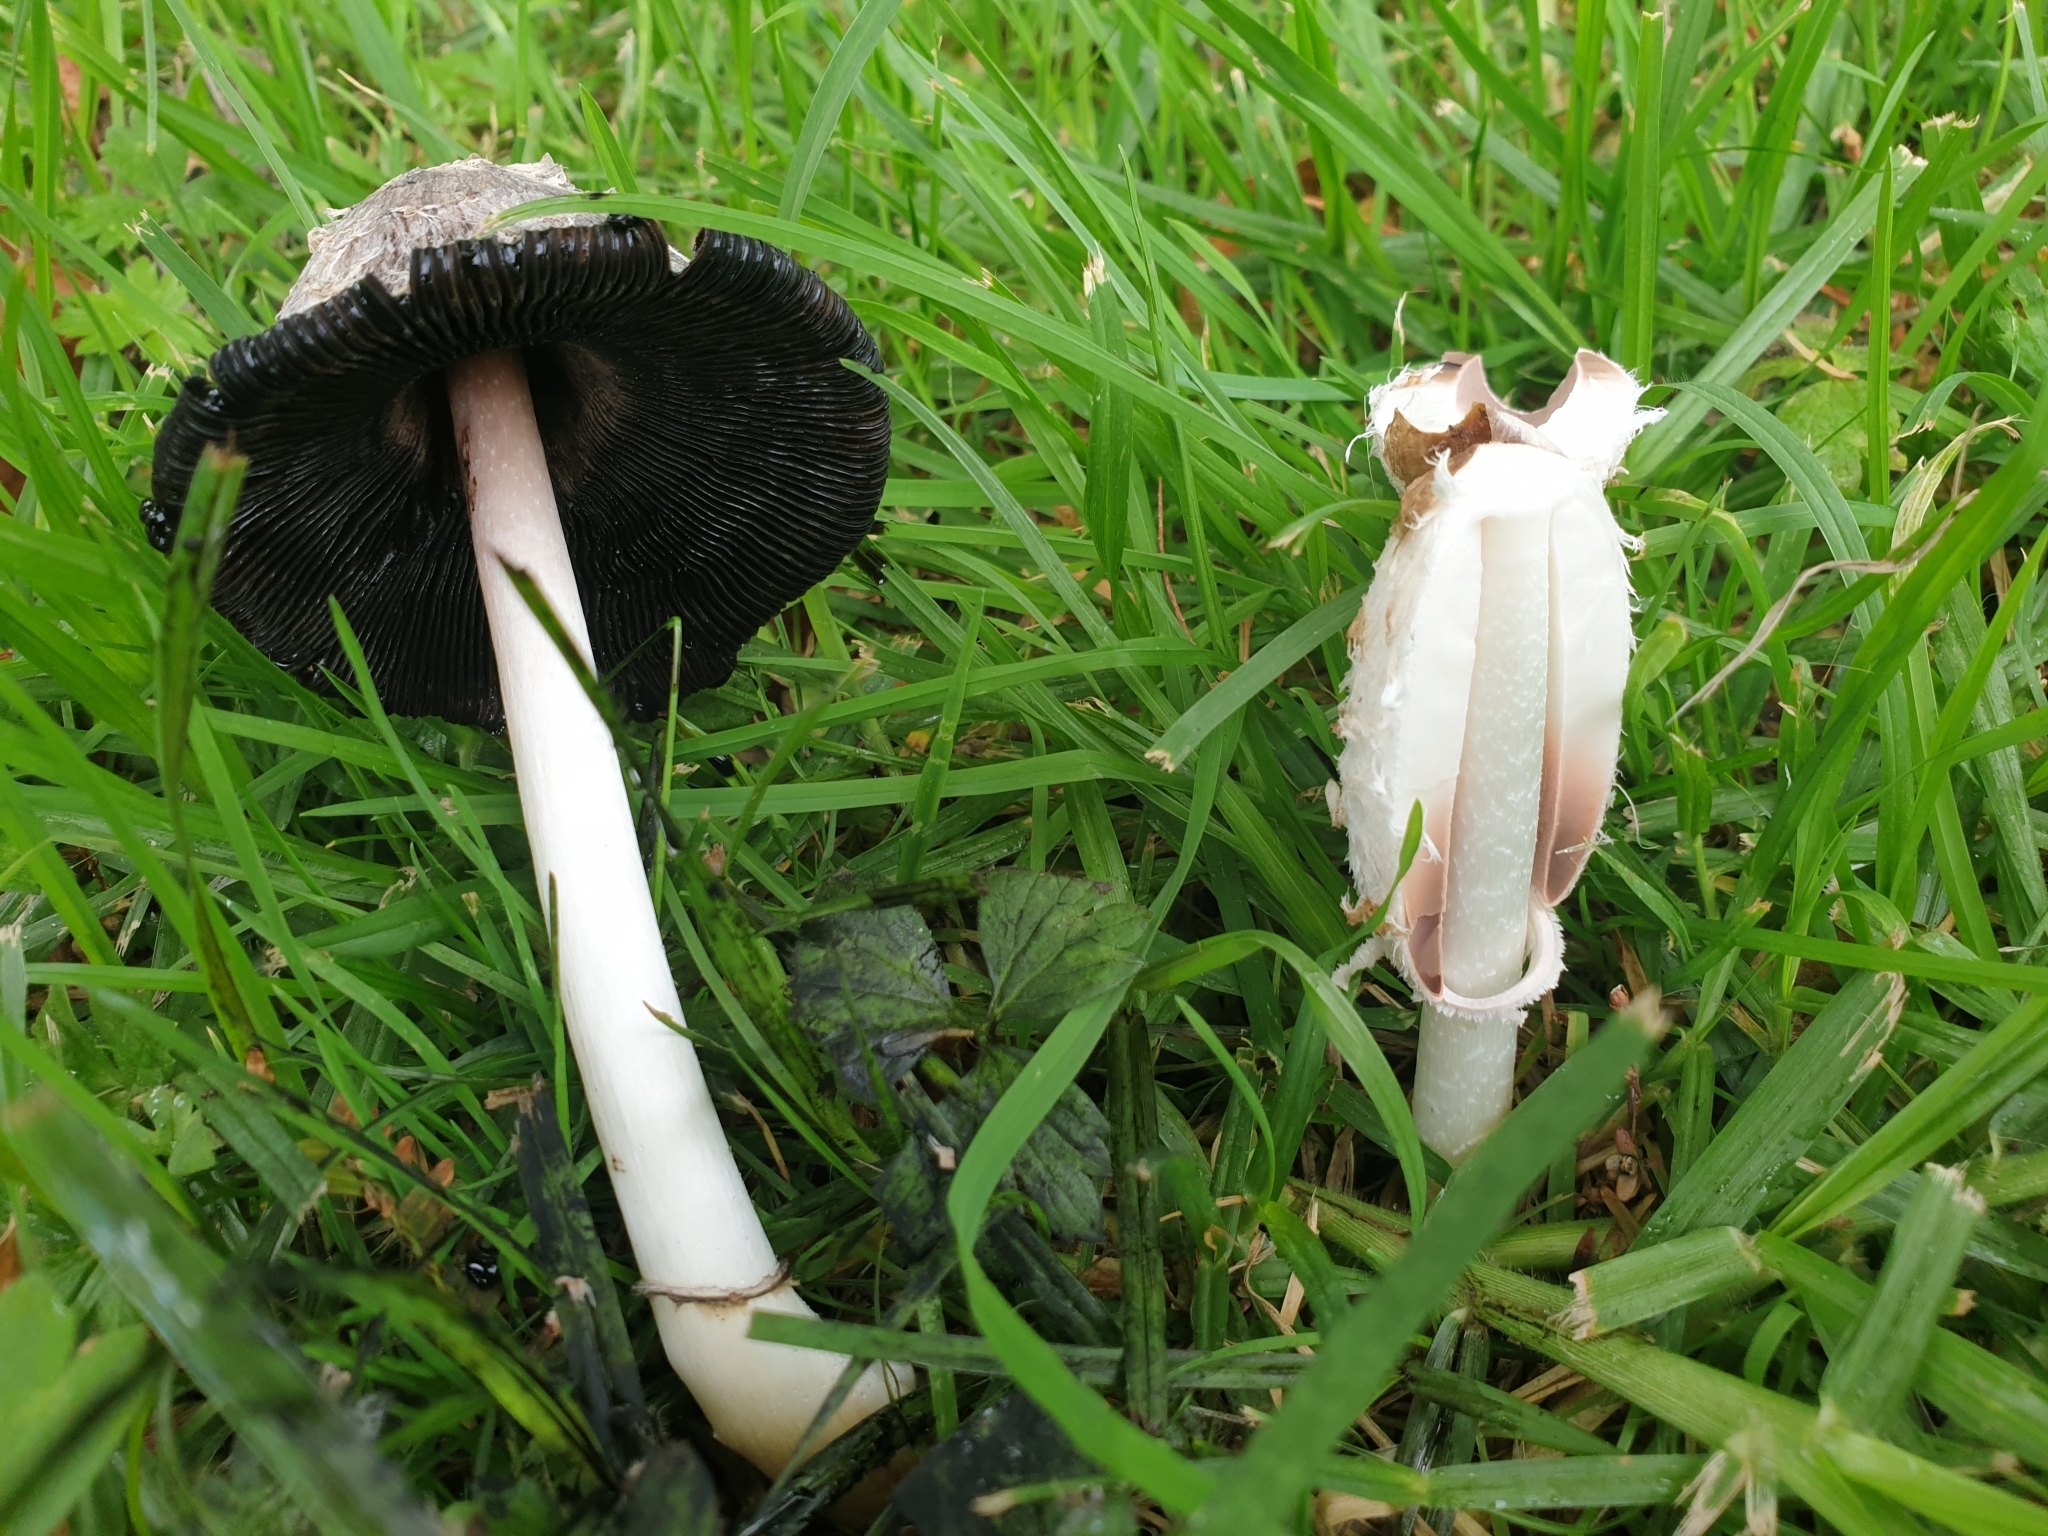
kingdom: Fungi
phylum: Basidiomycota
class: Agaricomycetes
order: Agaricales
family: Agaricaceae
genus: Coprinus
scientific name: Coprinus comatus
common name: Lawyer's wig
